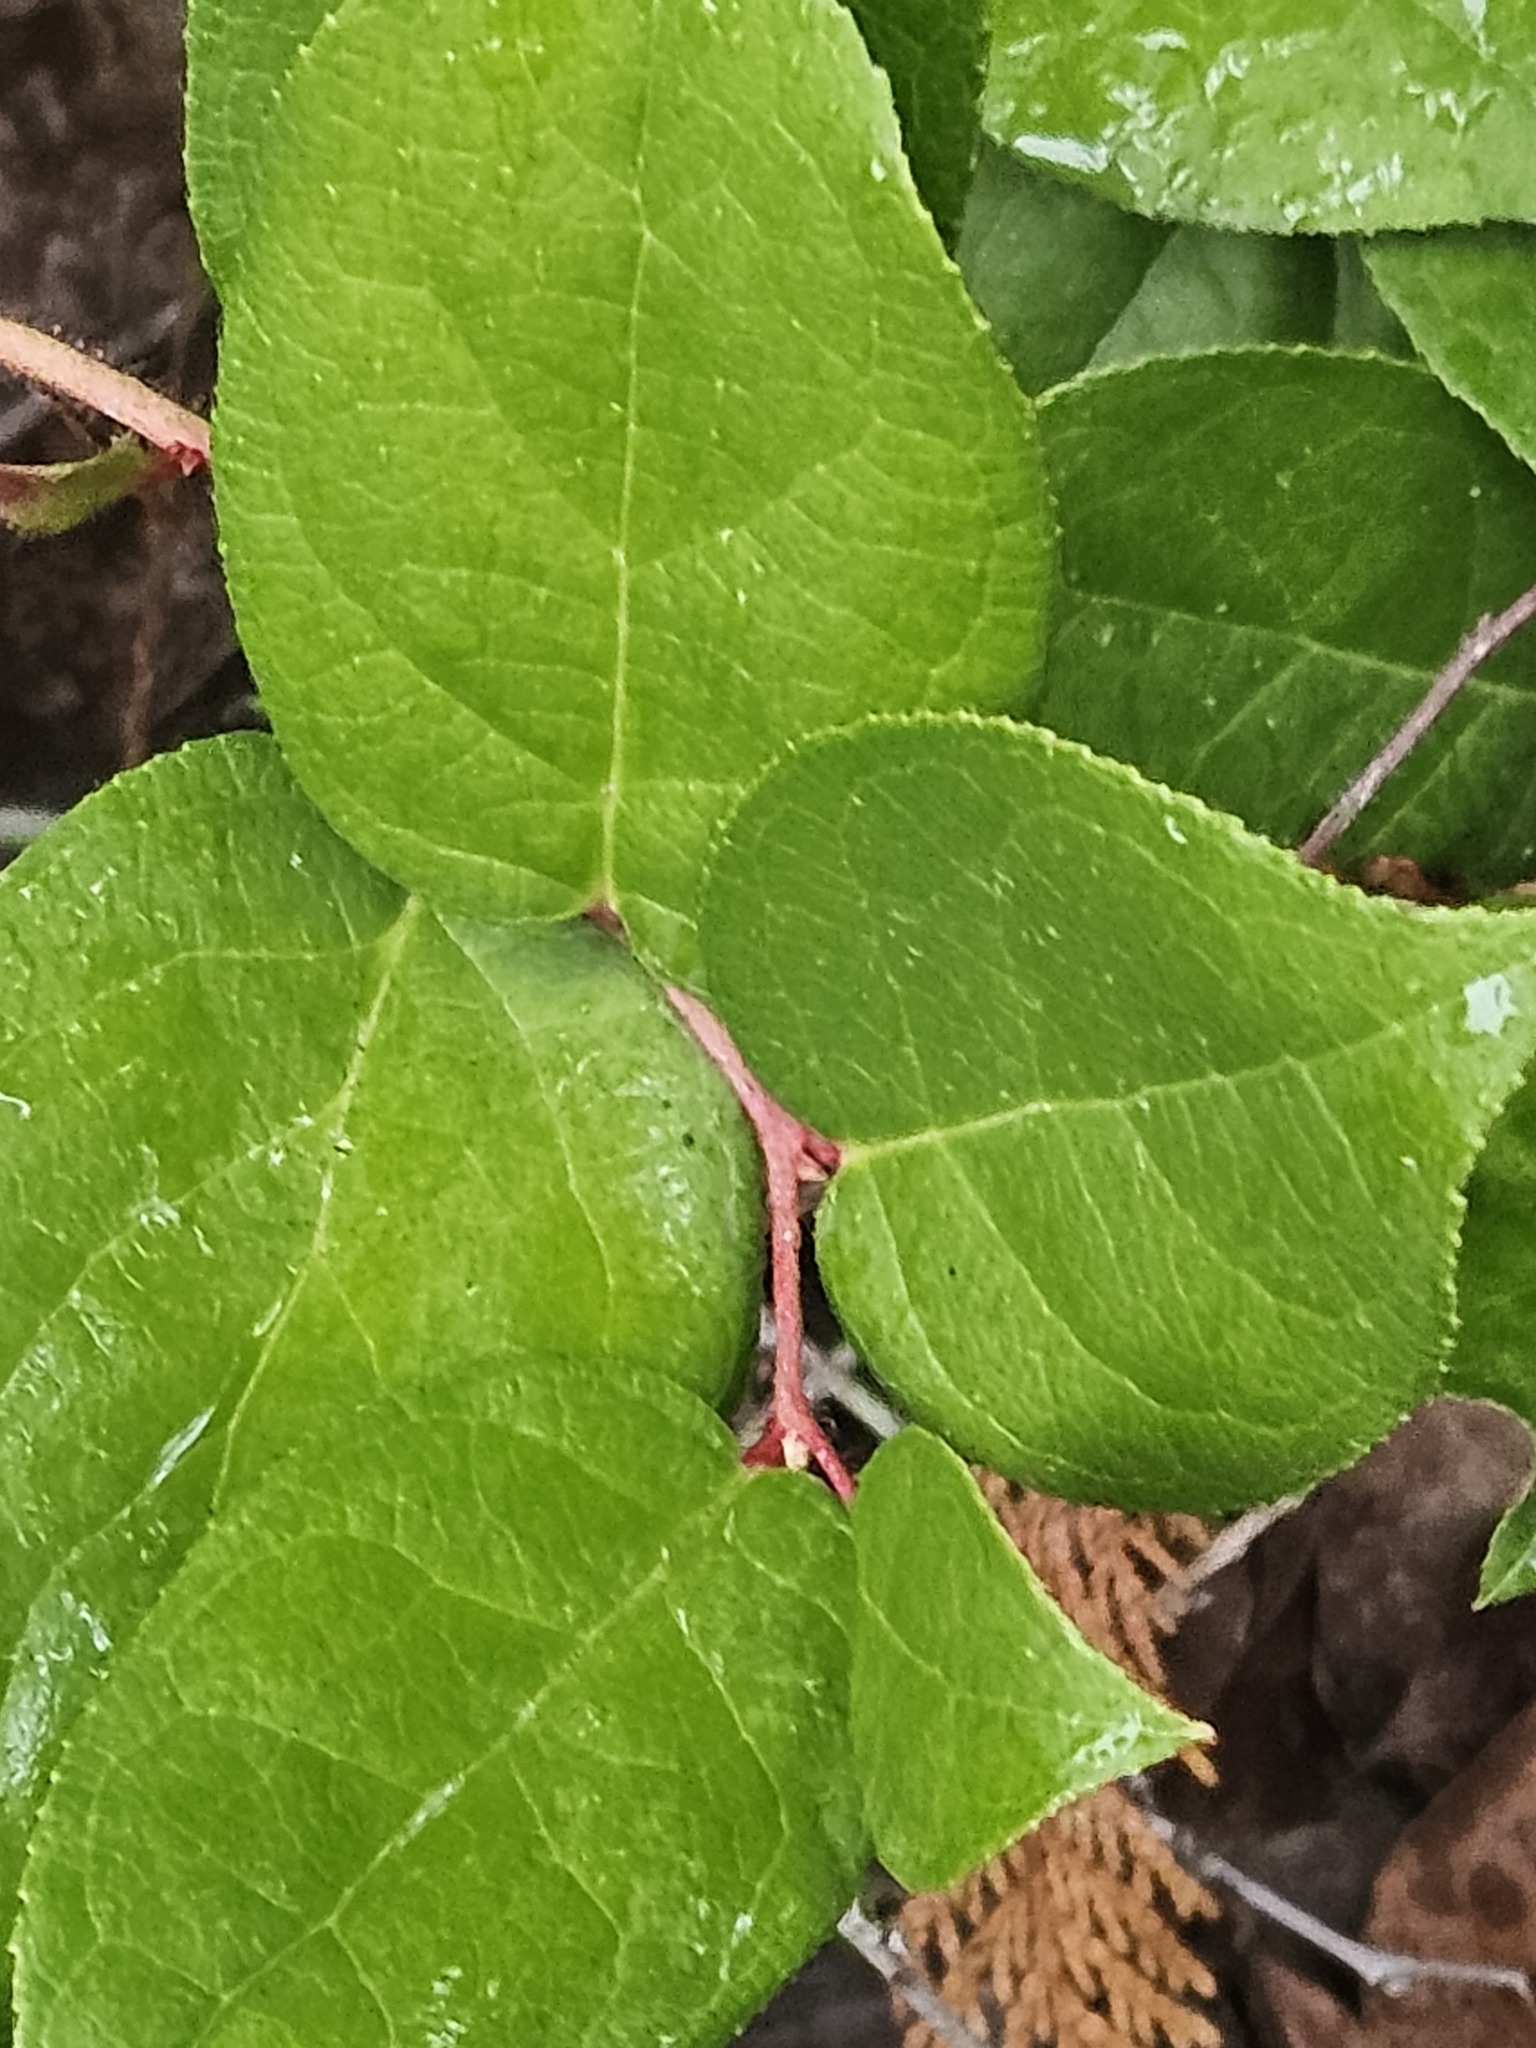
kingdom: Plantae
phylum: Tracheophyta
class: Magnoliopsida
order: Ericales
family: Ericaceae
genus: Gaultheria
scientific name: Gaultheria shallon
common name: Shallon
